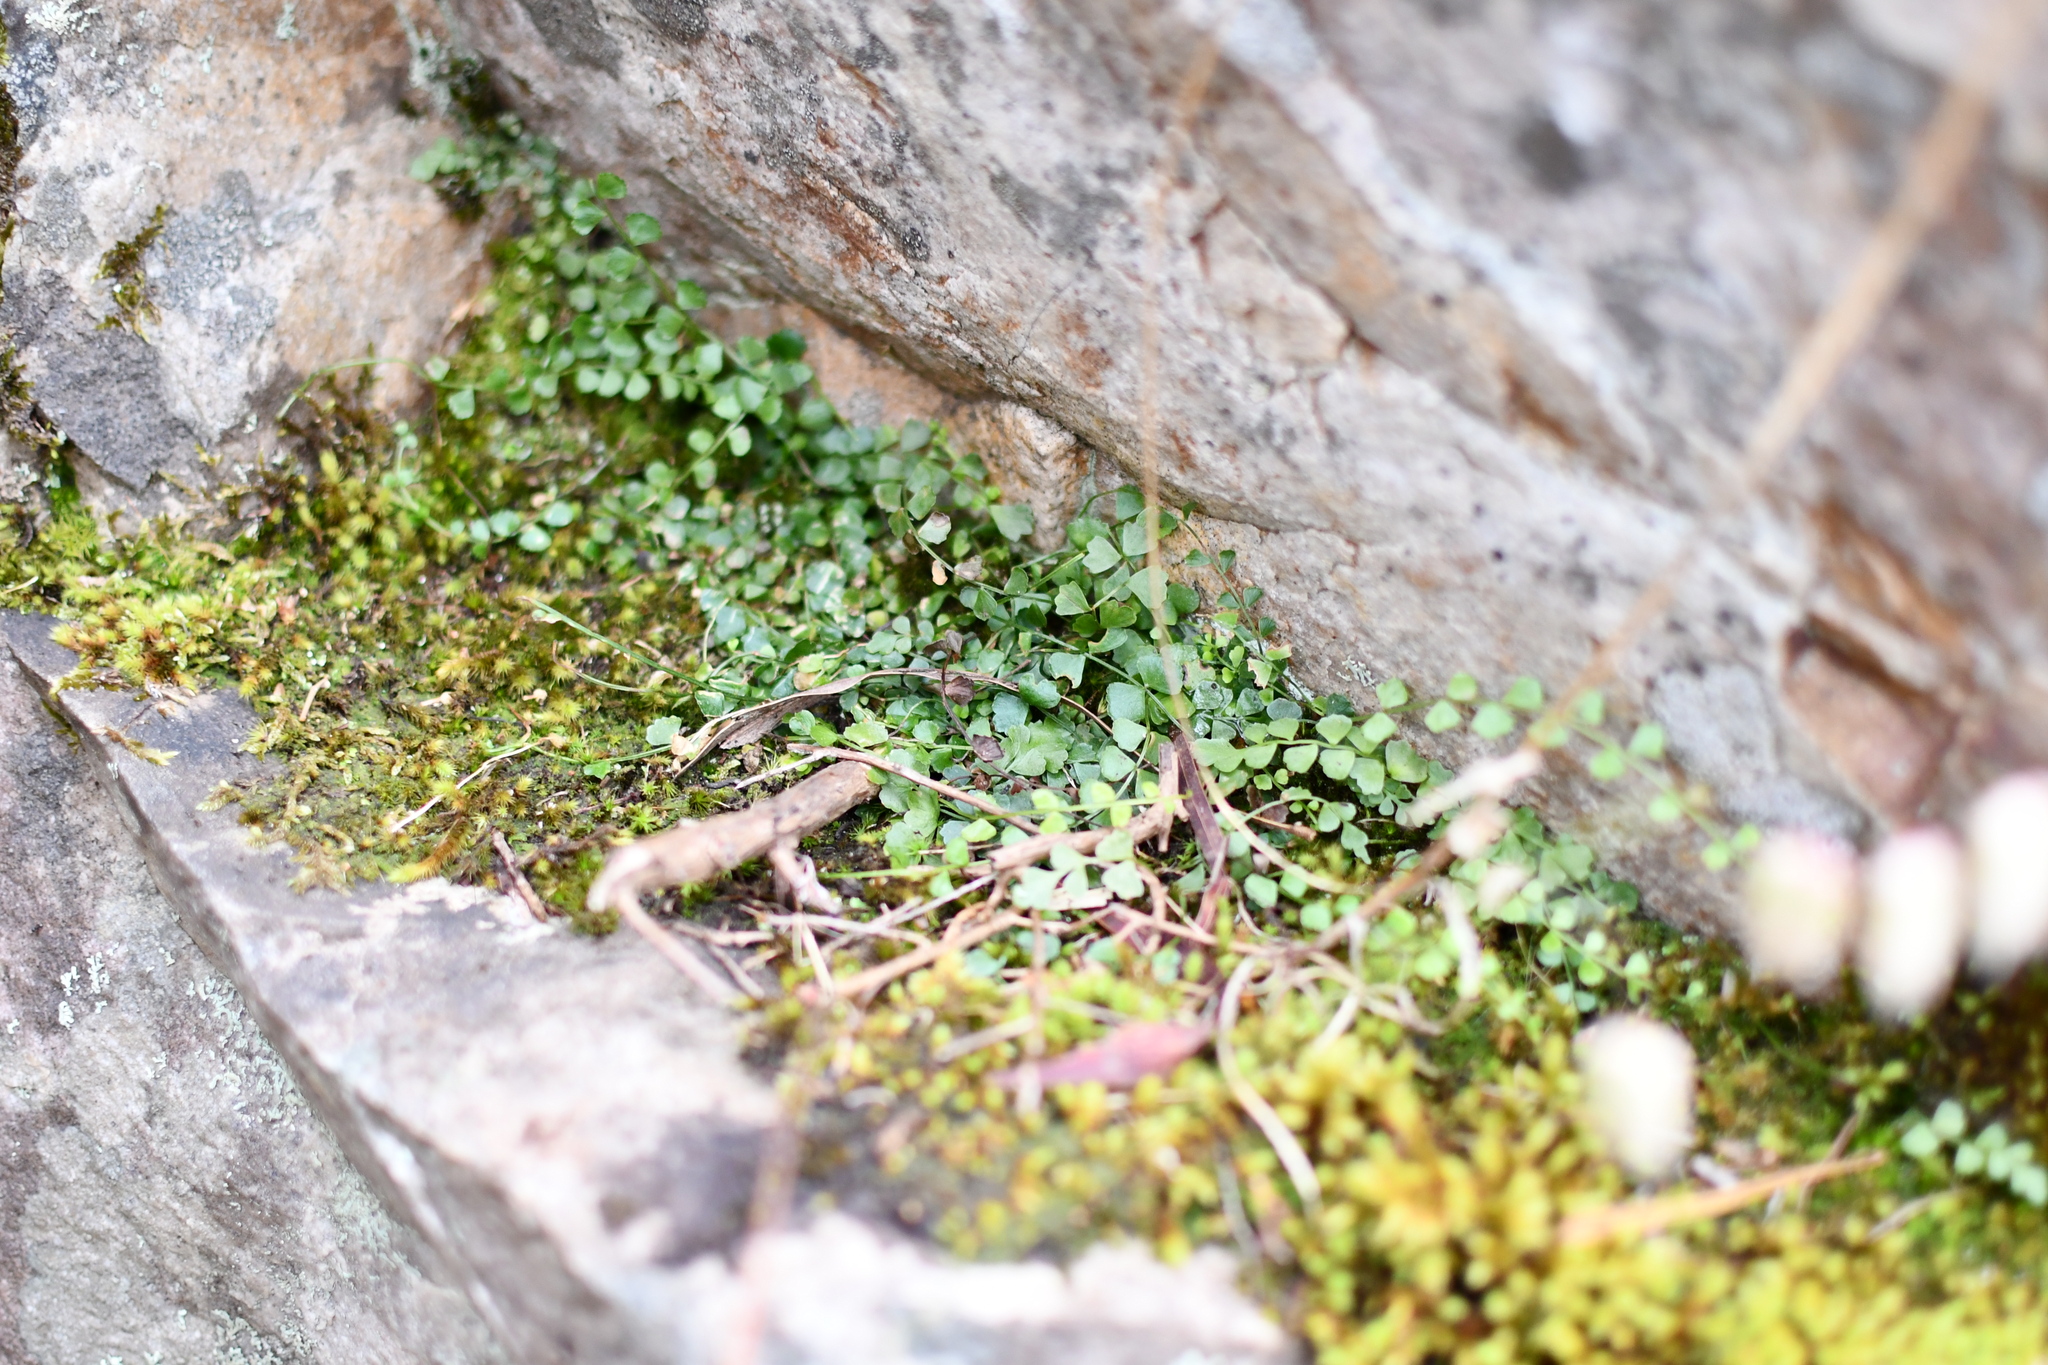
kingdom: Plantae
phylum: Tracheophyta
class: Polypodiopsida
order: Polypodiales
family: Aspleniaceae
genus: Asplenium
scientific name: Asplenium flabellifolium
